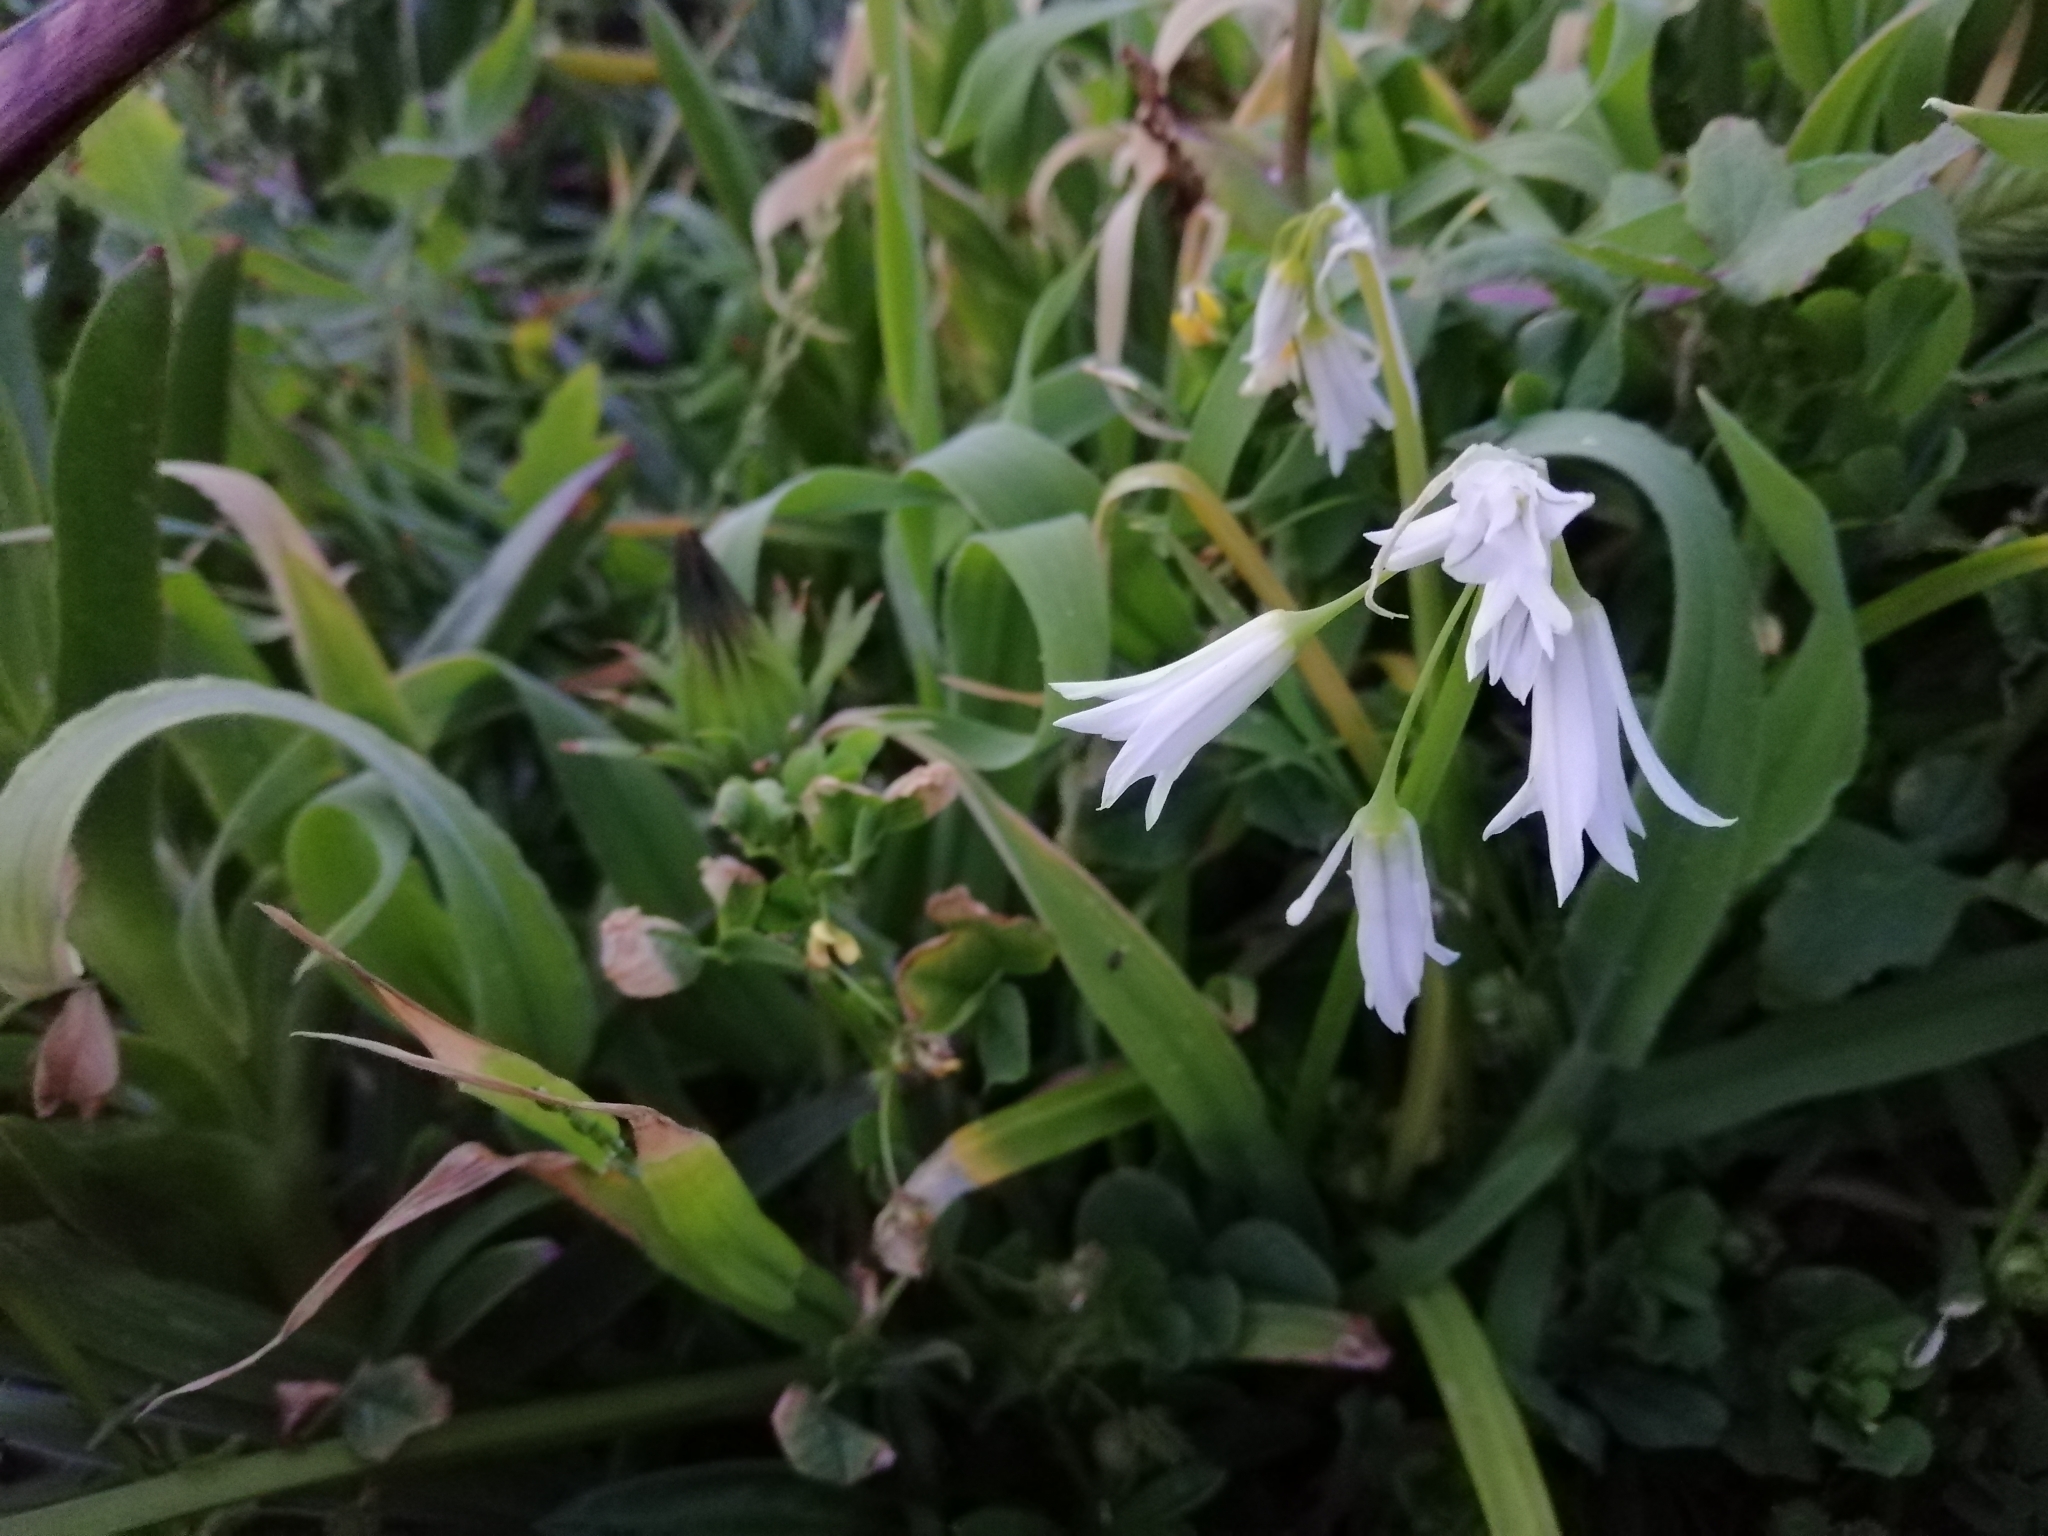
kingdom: Plantae
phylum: Tracheophyta
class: Liliopsida
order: Asparagales
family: Amaryllidaceae
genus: Allium
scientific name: Allium triquetrum
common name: Three-cornered garlic
